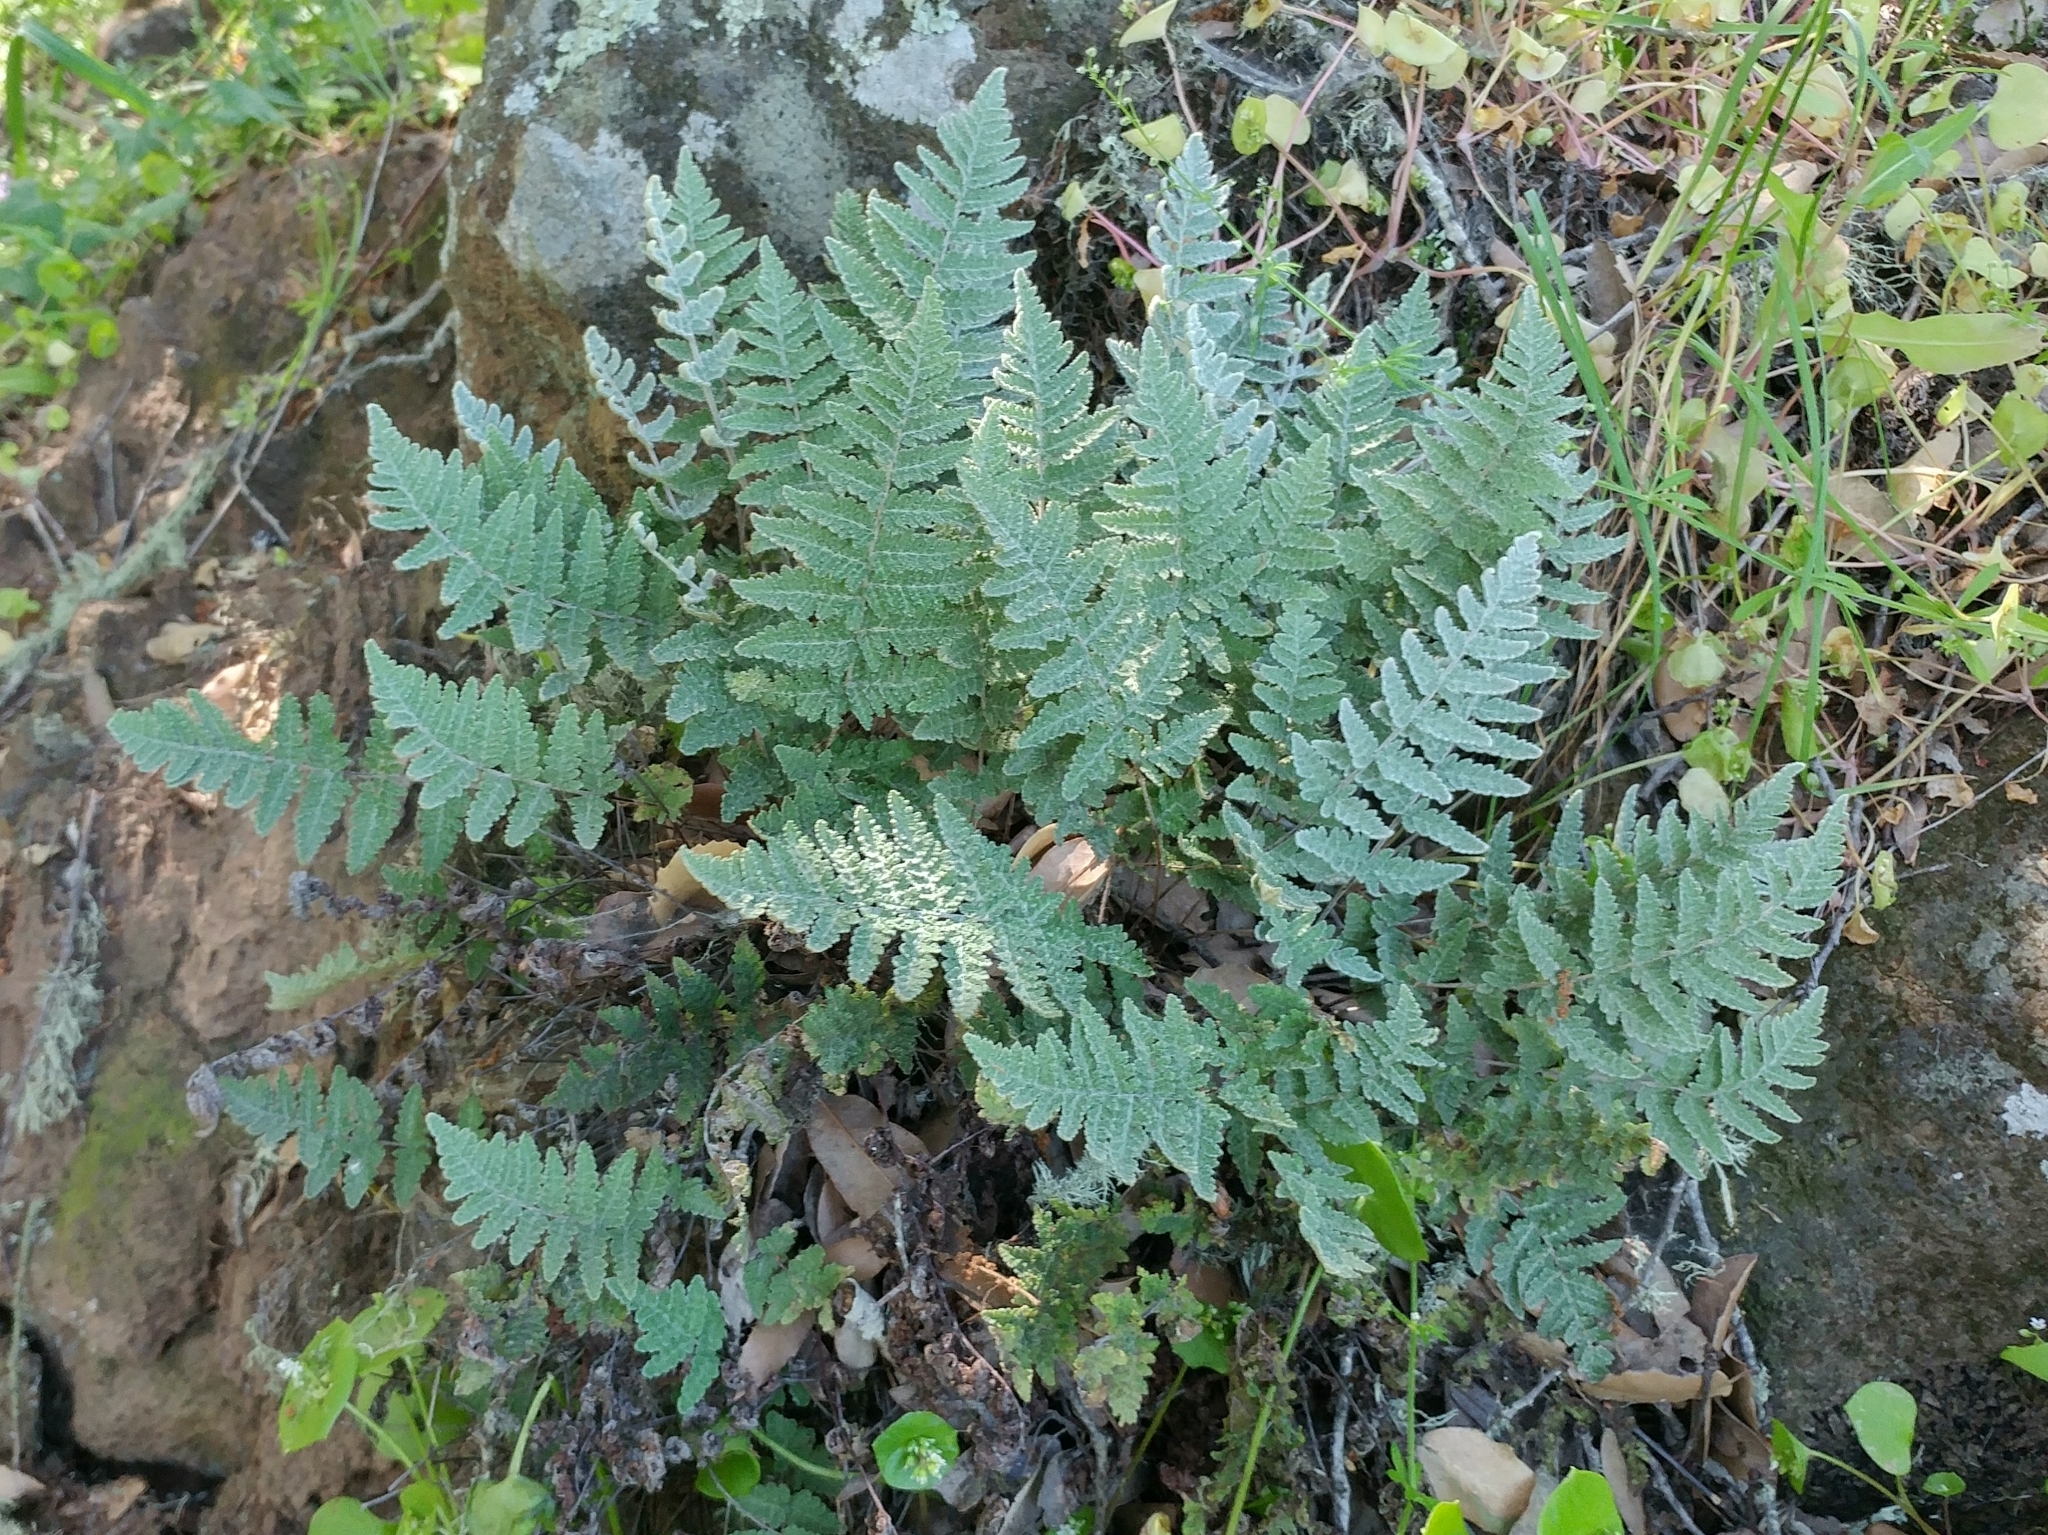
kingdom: Plantae
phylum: Tracheophyta
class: Polypodiopsida
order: Polypodiales
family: Pteridaceae
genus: Myriopteris
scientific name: Myriopteris newberryi
